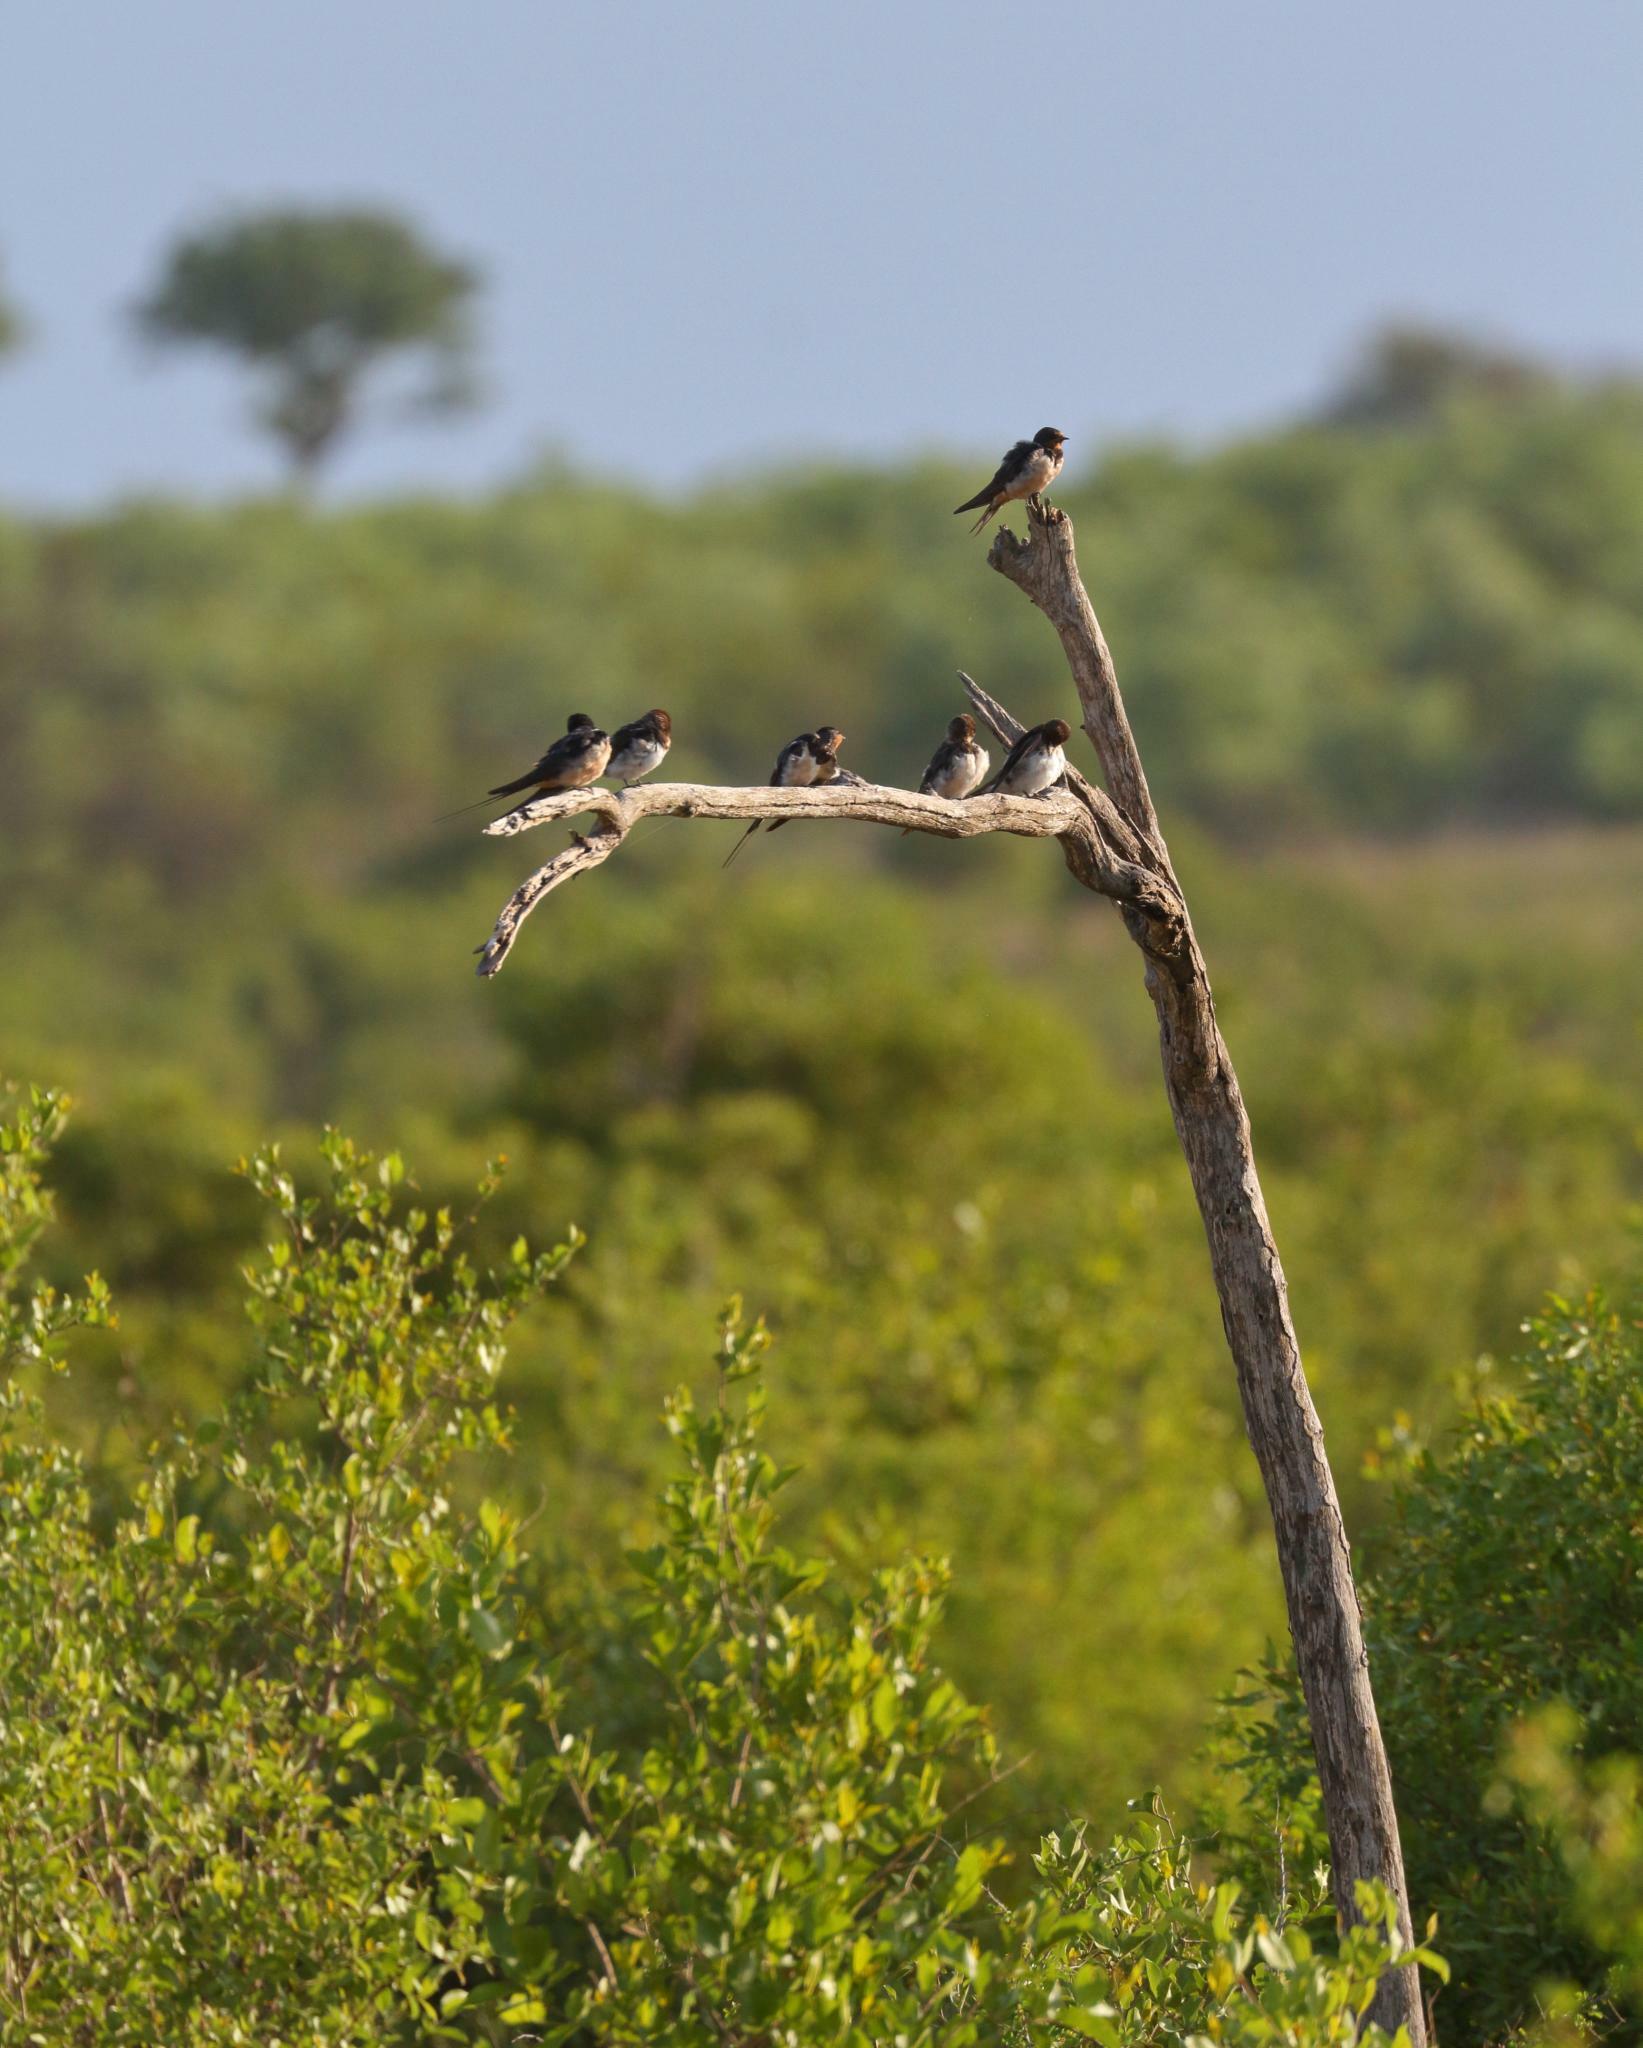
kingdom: Animalia
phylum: Chordata
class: Aves
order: Passeriformes
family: Hirundinidae
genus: Hirundo
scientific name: Hirundo rustica
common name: Barn swallow
